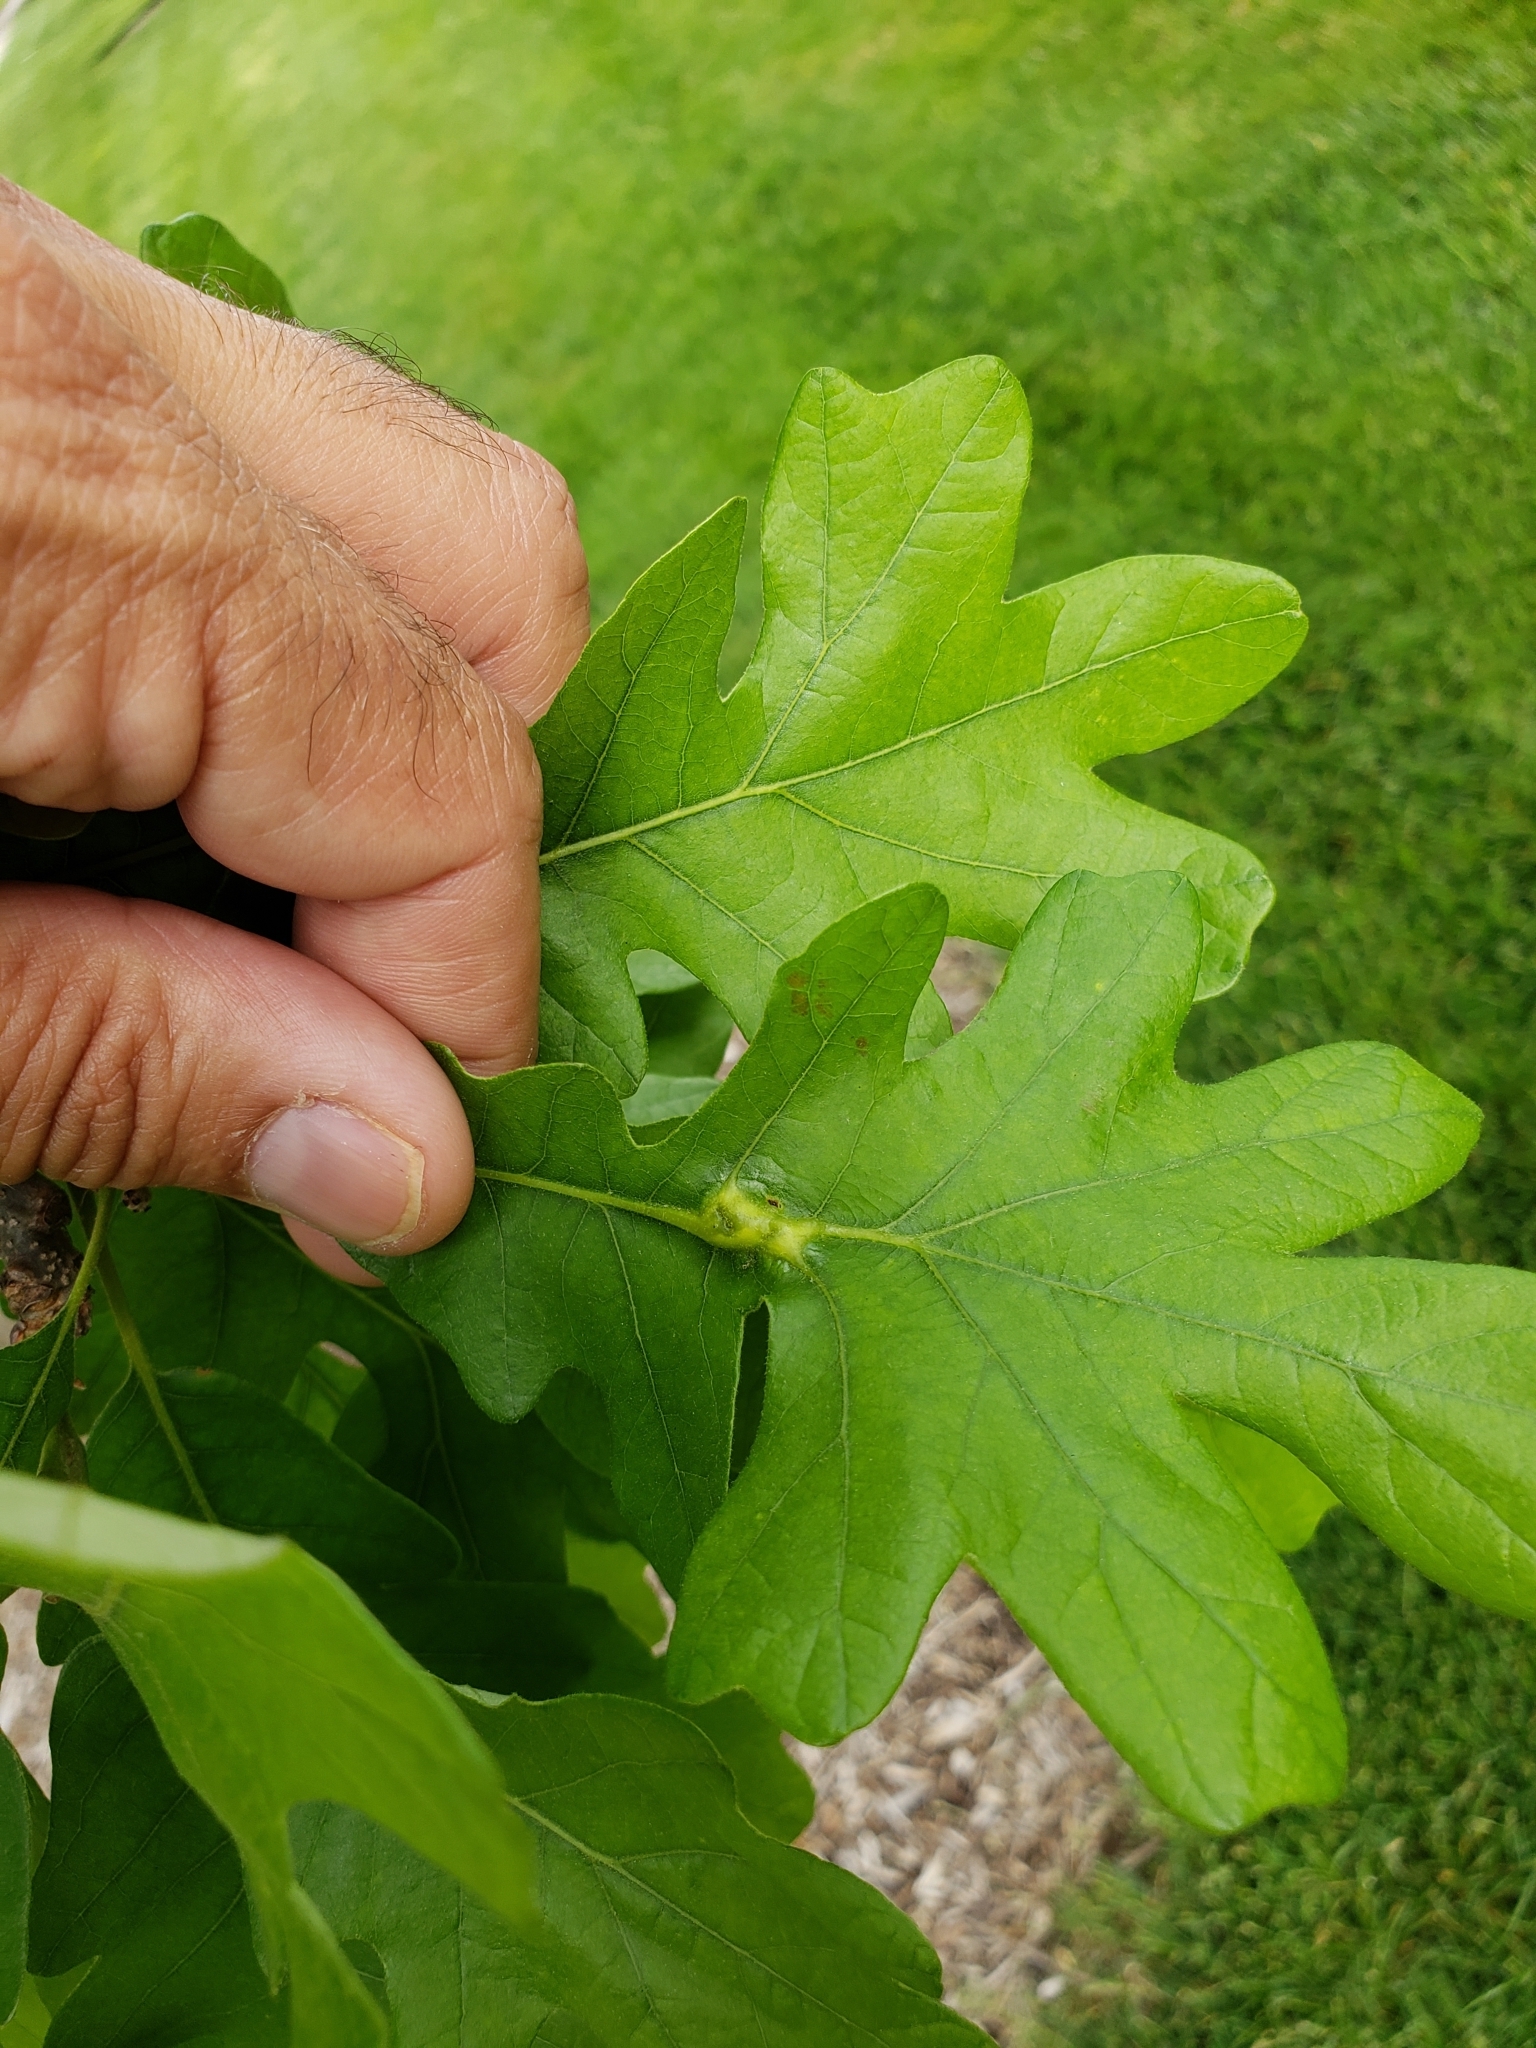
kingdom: Animalia
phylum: Arthropoda
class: Insecta
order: Hymenoptera
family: Cynipidae
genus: Bassettia
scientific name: Bassettia flavipes
